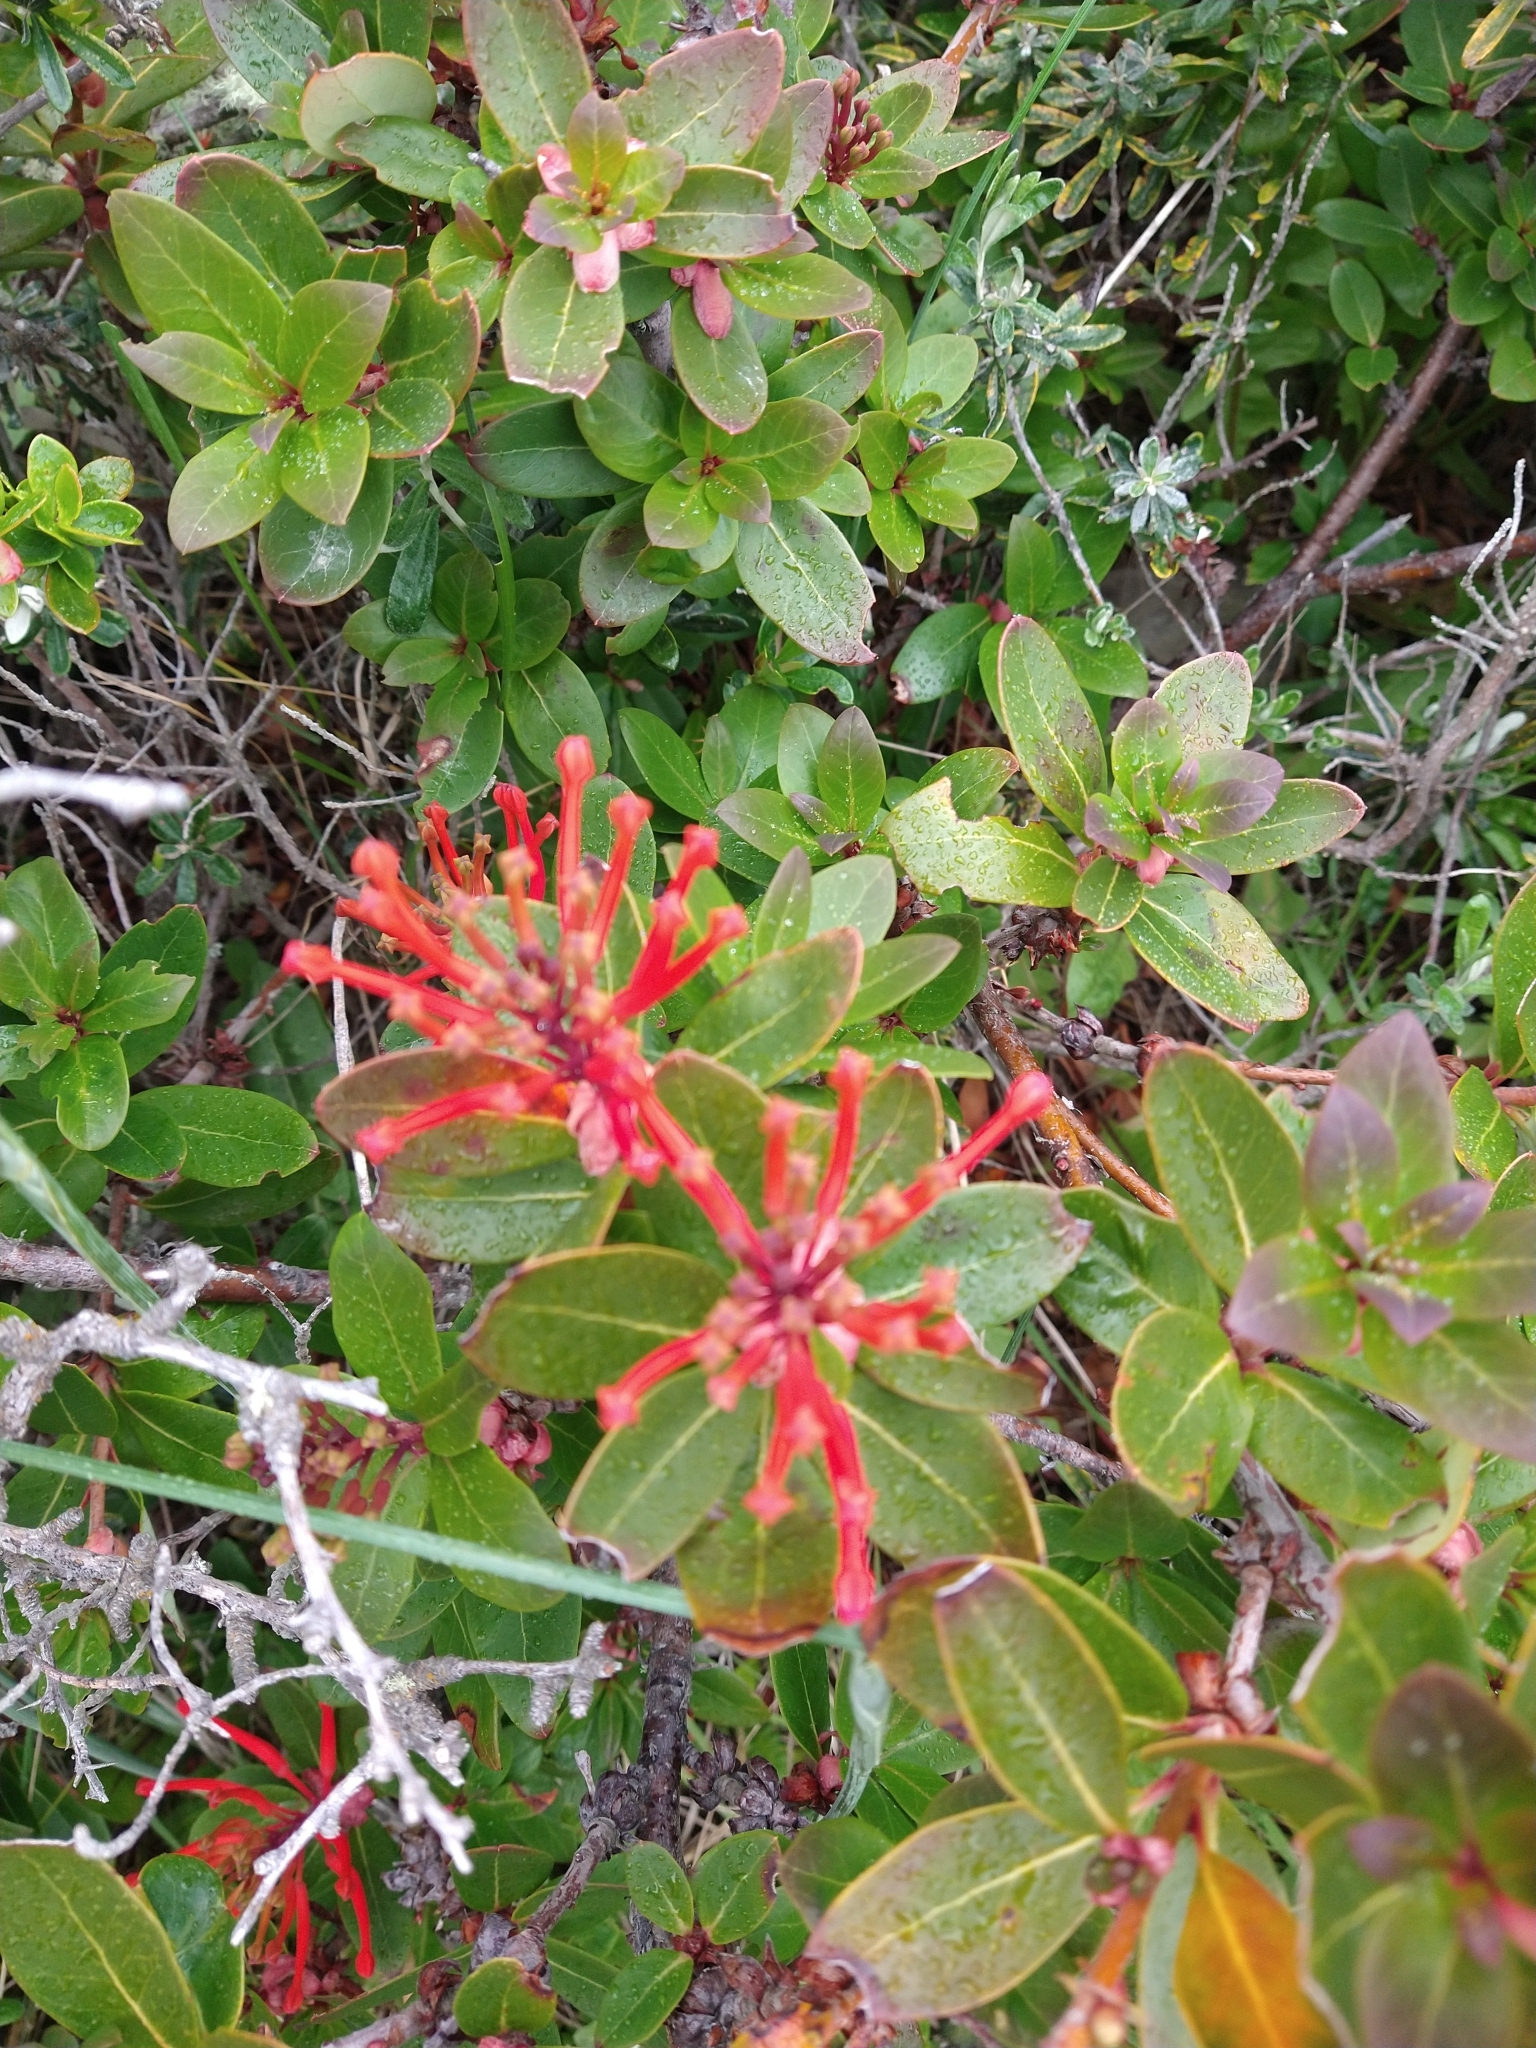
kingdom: Plantae
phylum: Tracheophyta
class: Magnoliopsida
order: Proteales
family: Proteaceae
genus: Embothrium
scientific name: Embothrium coccineum
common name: Chilean firebush
